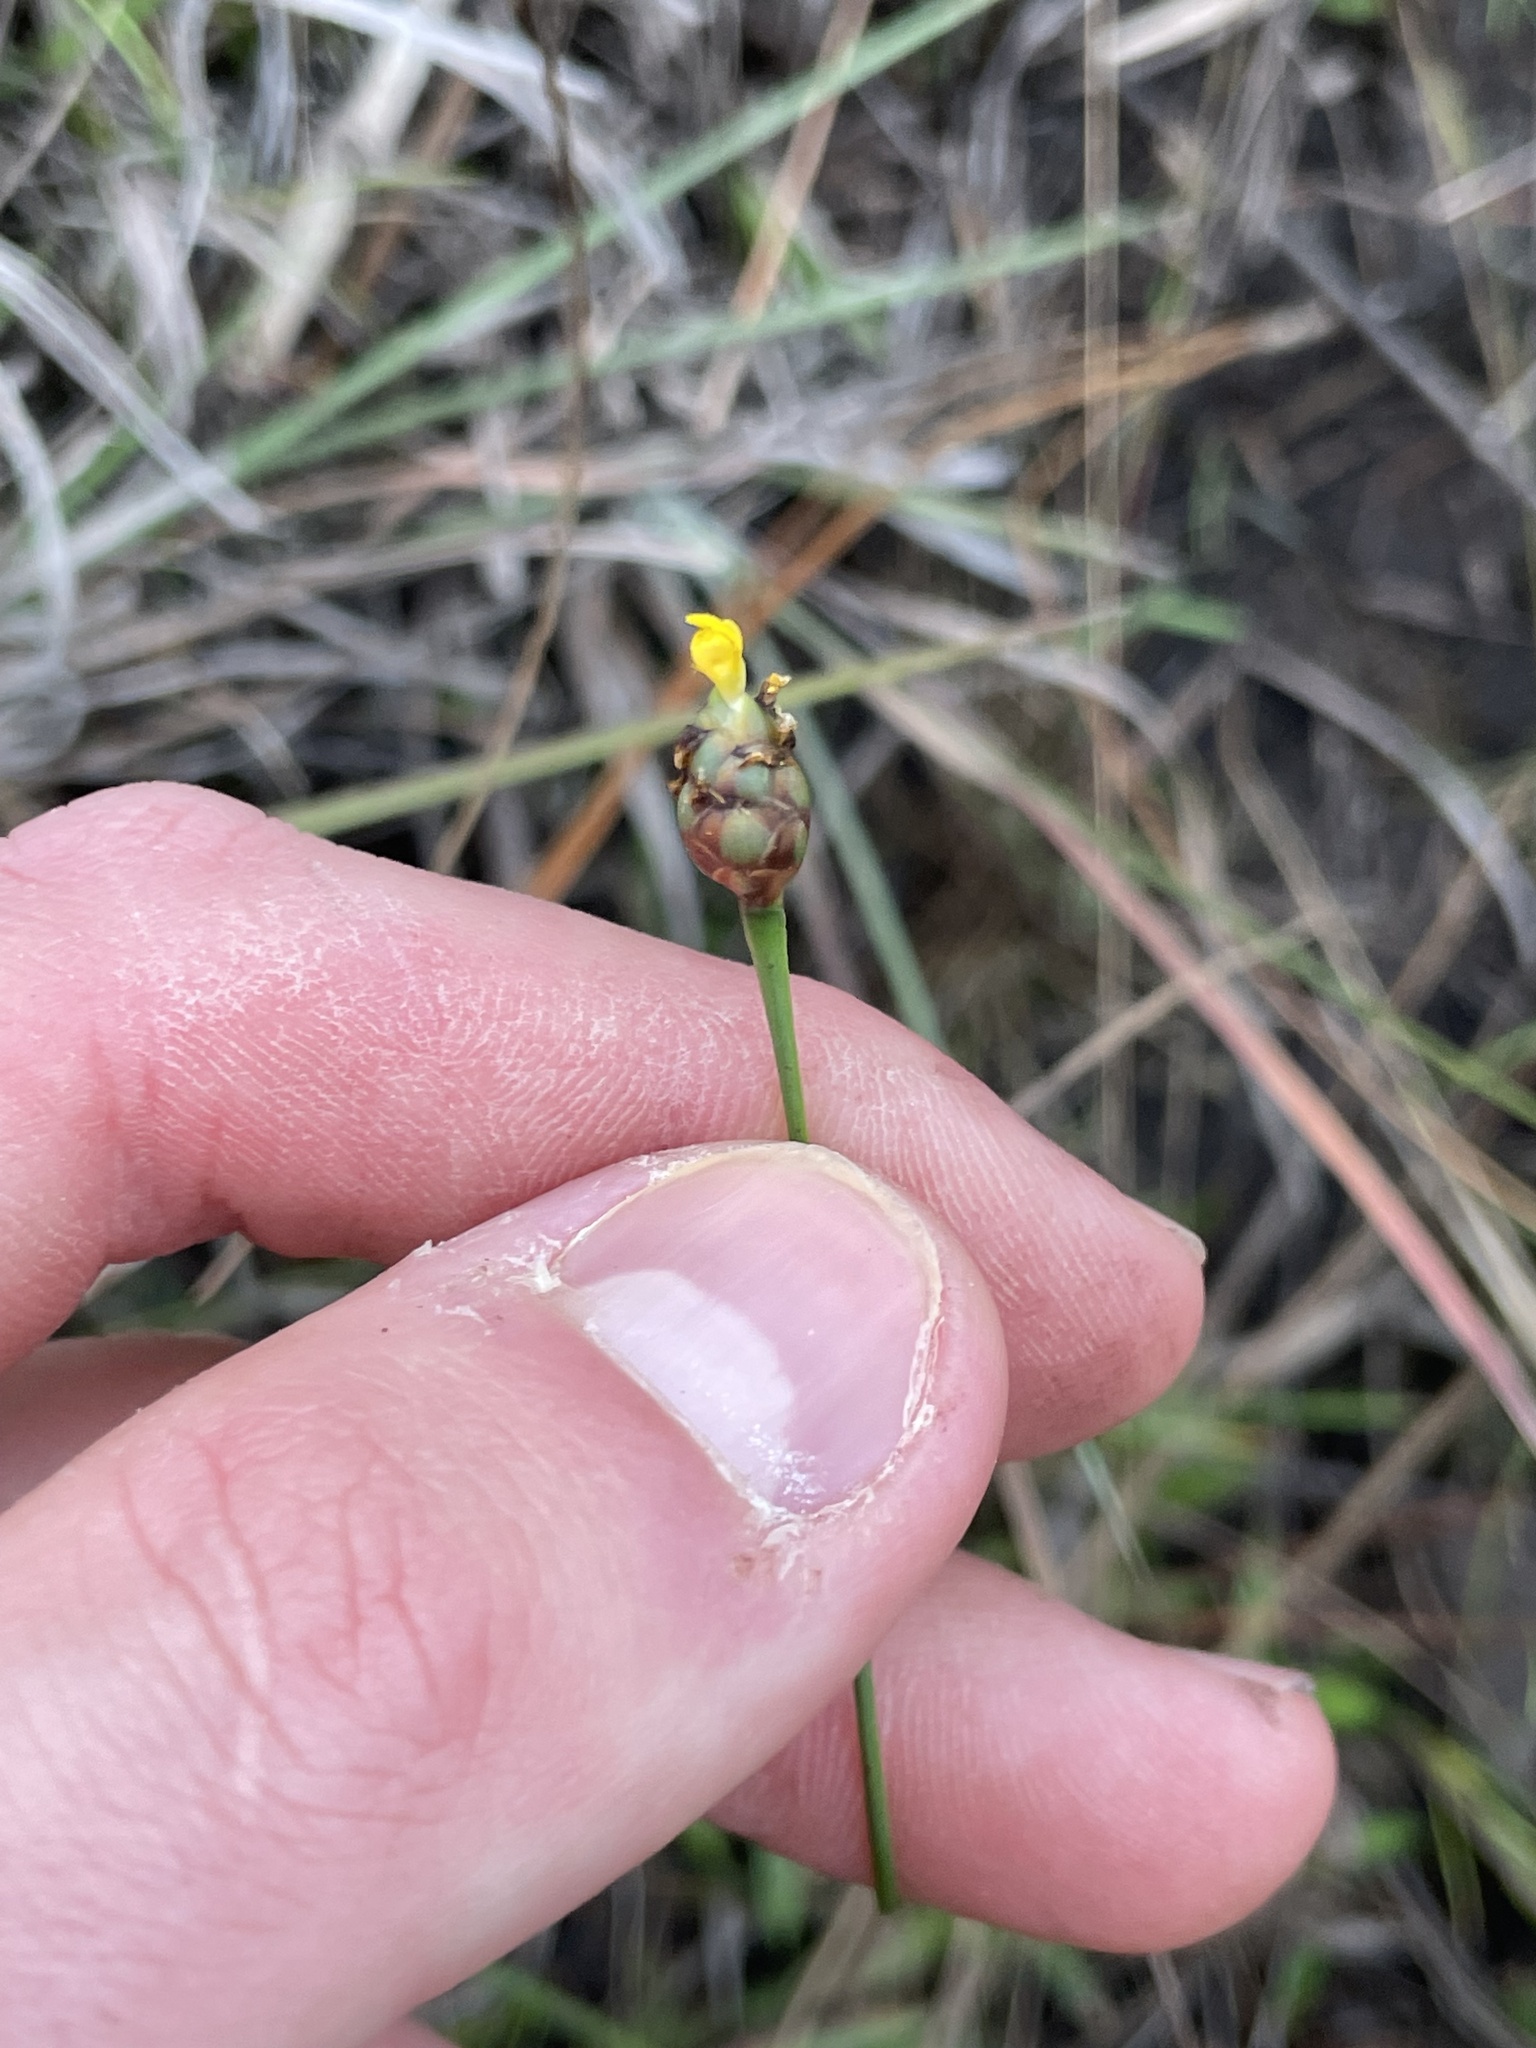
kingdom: Plantae
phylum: Tracheophyta
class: Liliopsida
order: Poales
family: Xyridaceae
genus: Xyris
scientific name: Xyris jupicai
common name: Richard's yelloweyed grass
